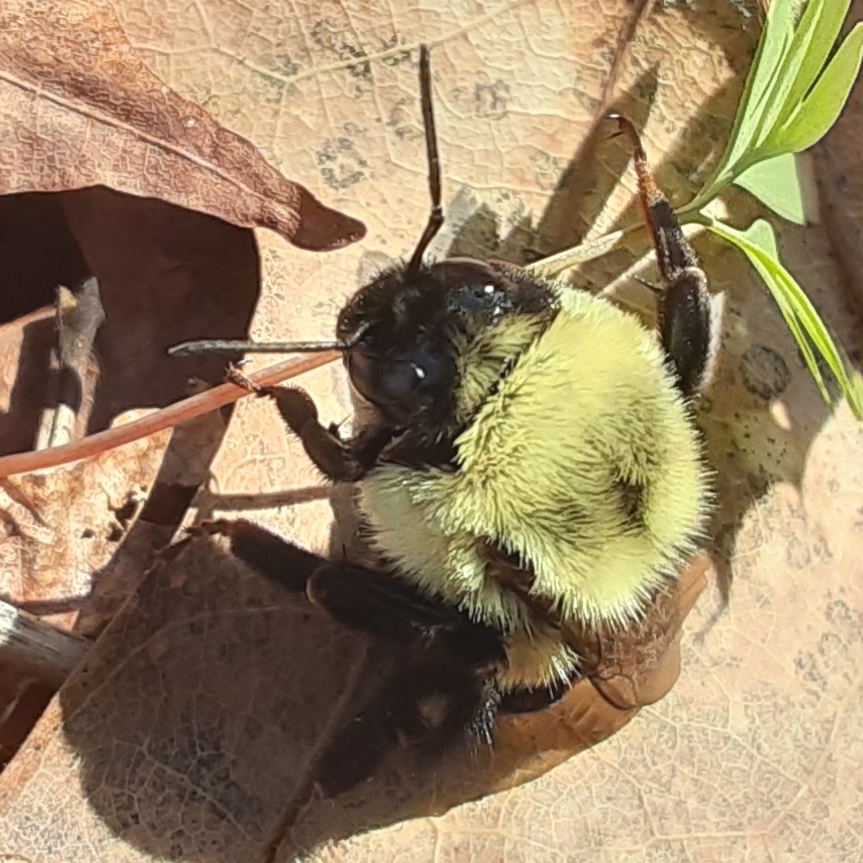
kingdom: Animalia
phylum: Arthropoda
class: Insecta
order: Hymenoptera
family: Apidae
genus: Bombus
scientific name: Bombus impatiens
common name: Common eastern bumble bee
